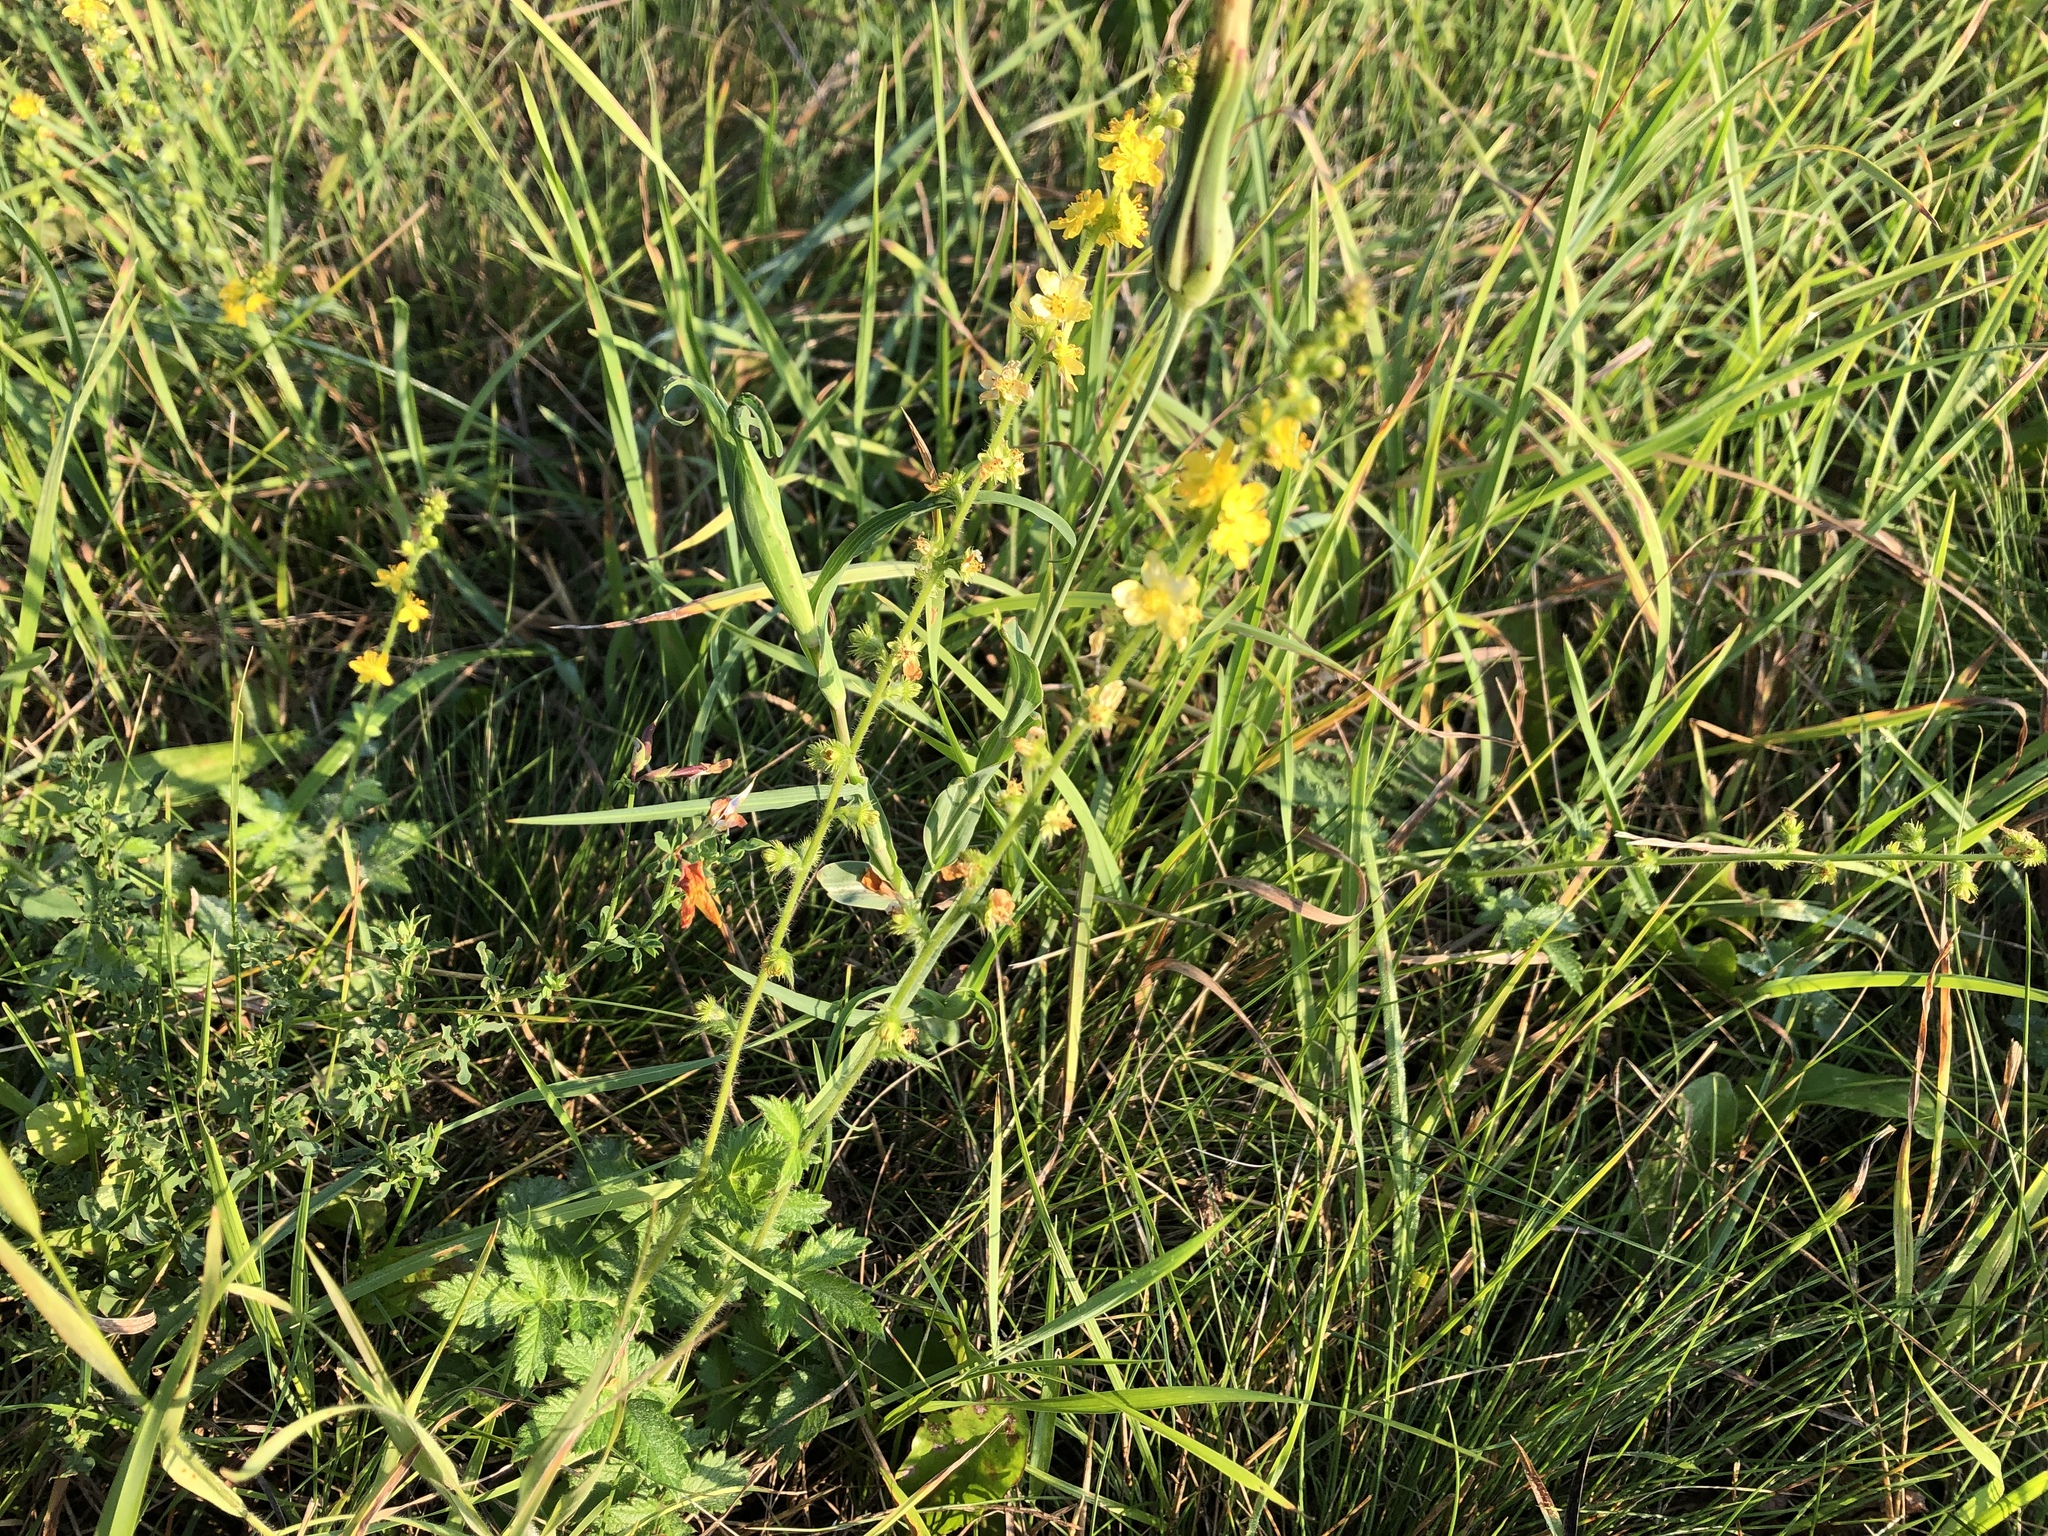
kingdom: Plantae
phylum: Tracheophyta
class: Magnoliopsida
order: Rosales
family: Rosaceae
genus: Agrimonia
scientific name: Agrimonia eupatoria
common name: Agrimony
